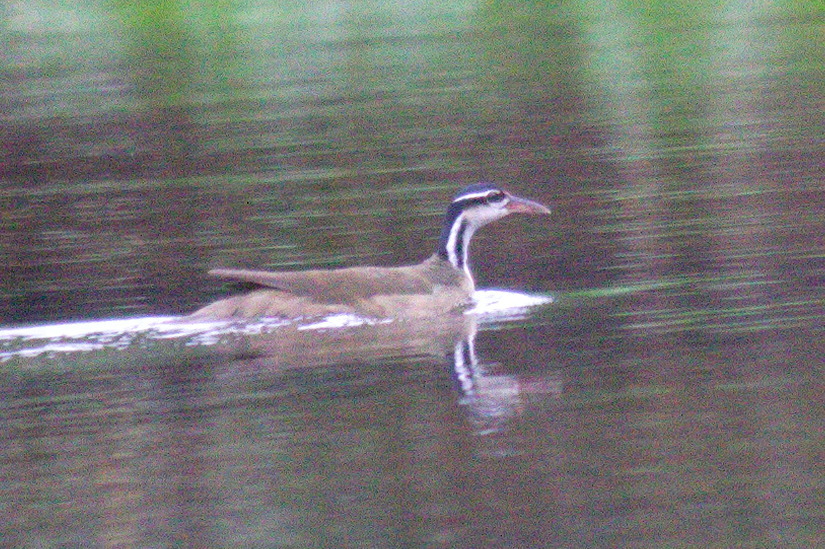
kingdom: Animalia
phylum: Chordata
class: Aves
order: Gruiformes
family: Heliornithidae
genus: Heliornis
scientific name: Heliornis fulica
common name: Sungrebe
